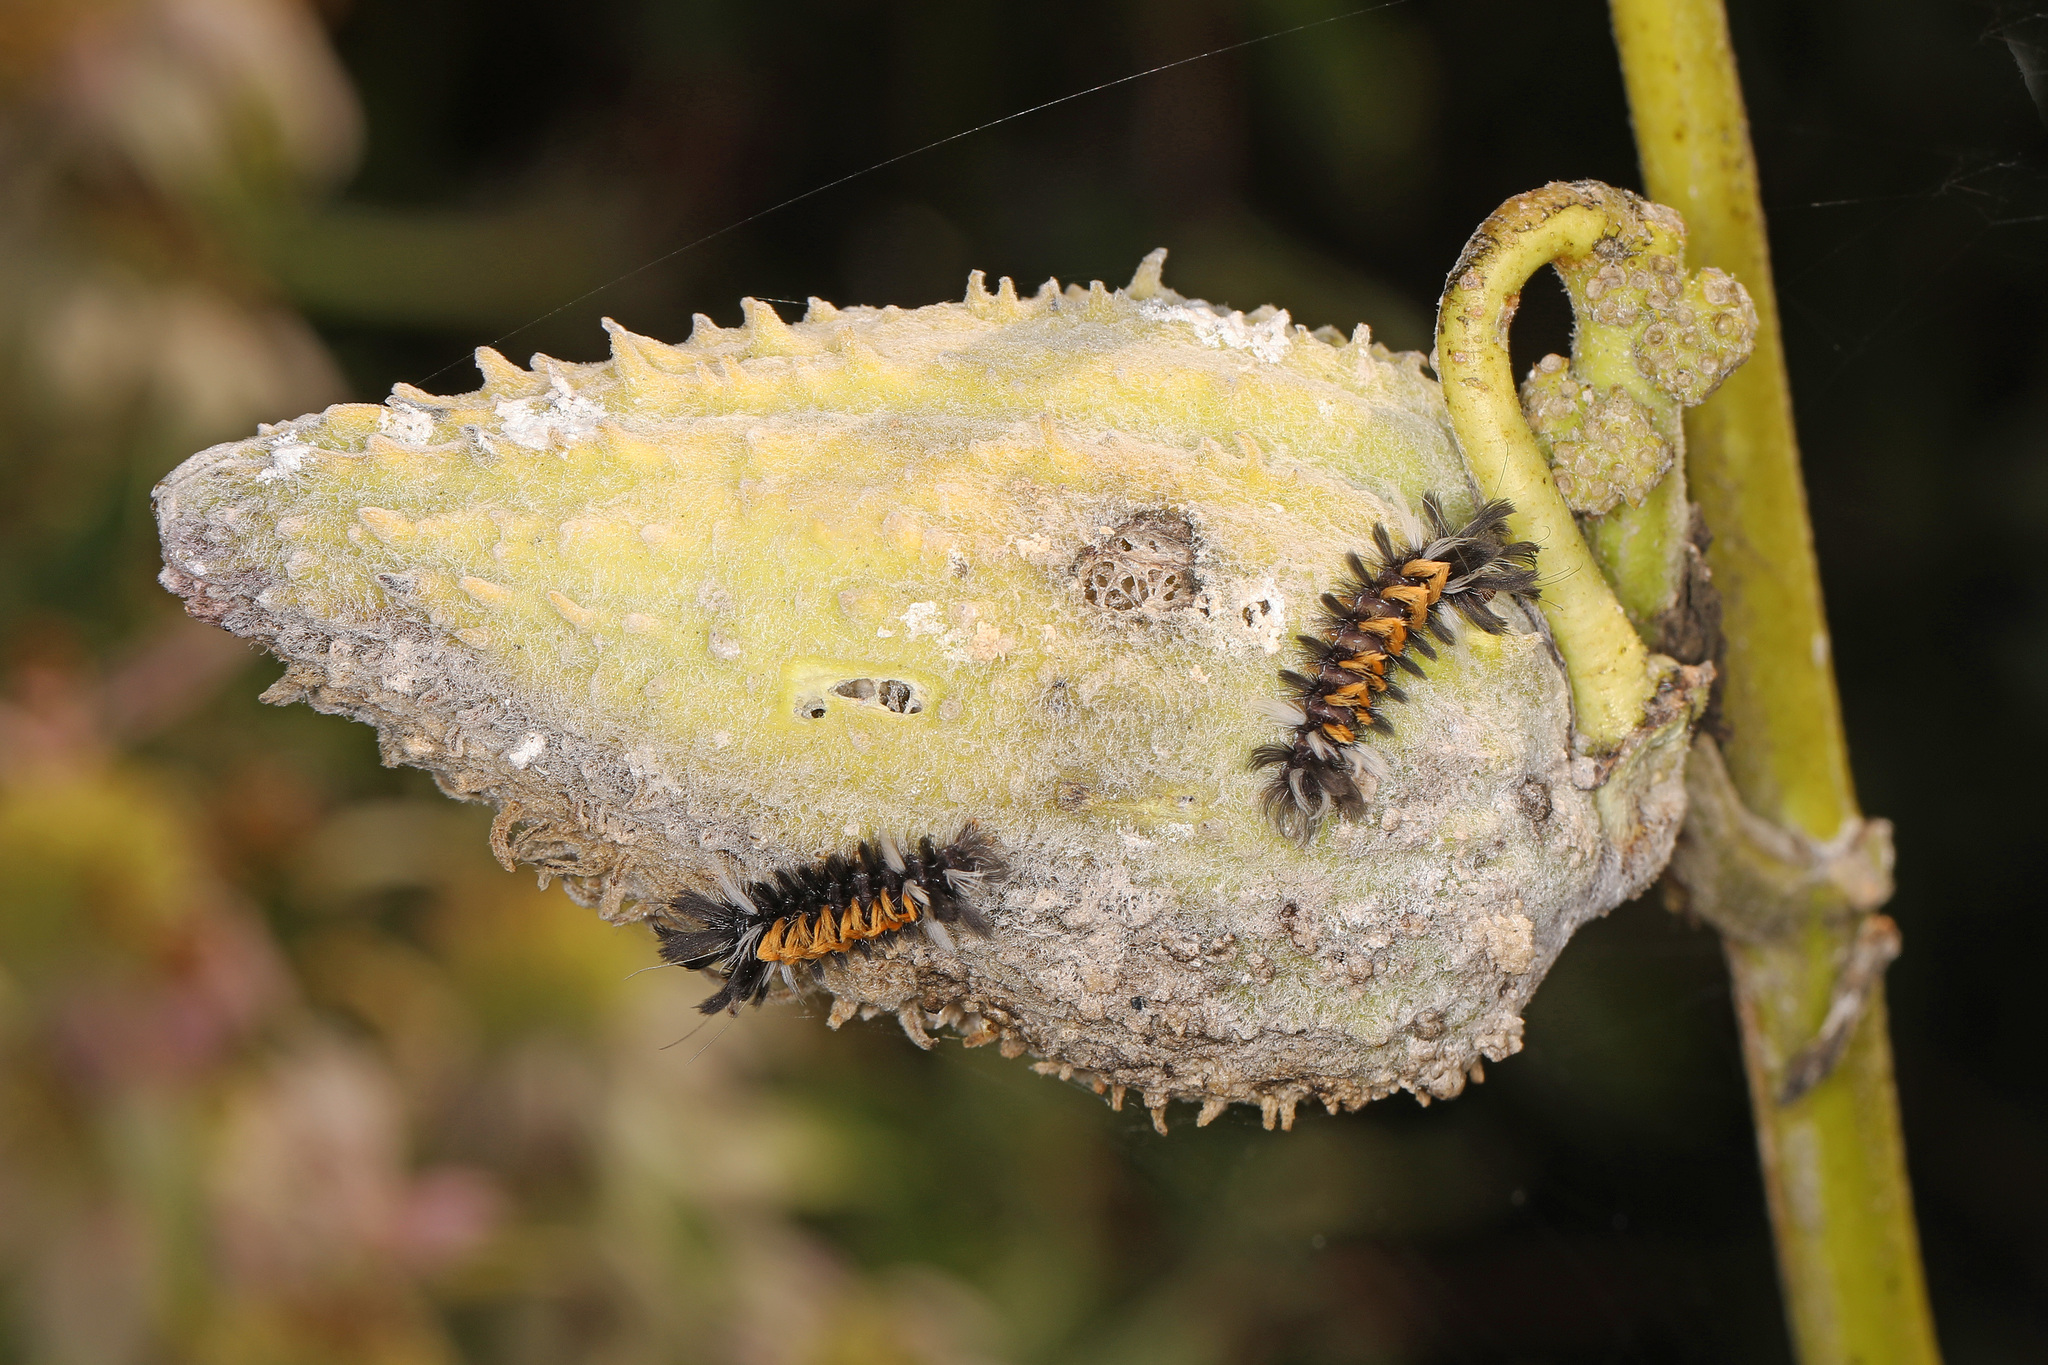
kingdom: Animalia
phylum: Arthropoda
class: Insecta
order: Lepidoptera
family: Erebidae
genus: Euchaetes
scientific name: Euchaetes egle
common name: Milkweed tussock moth
